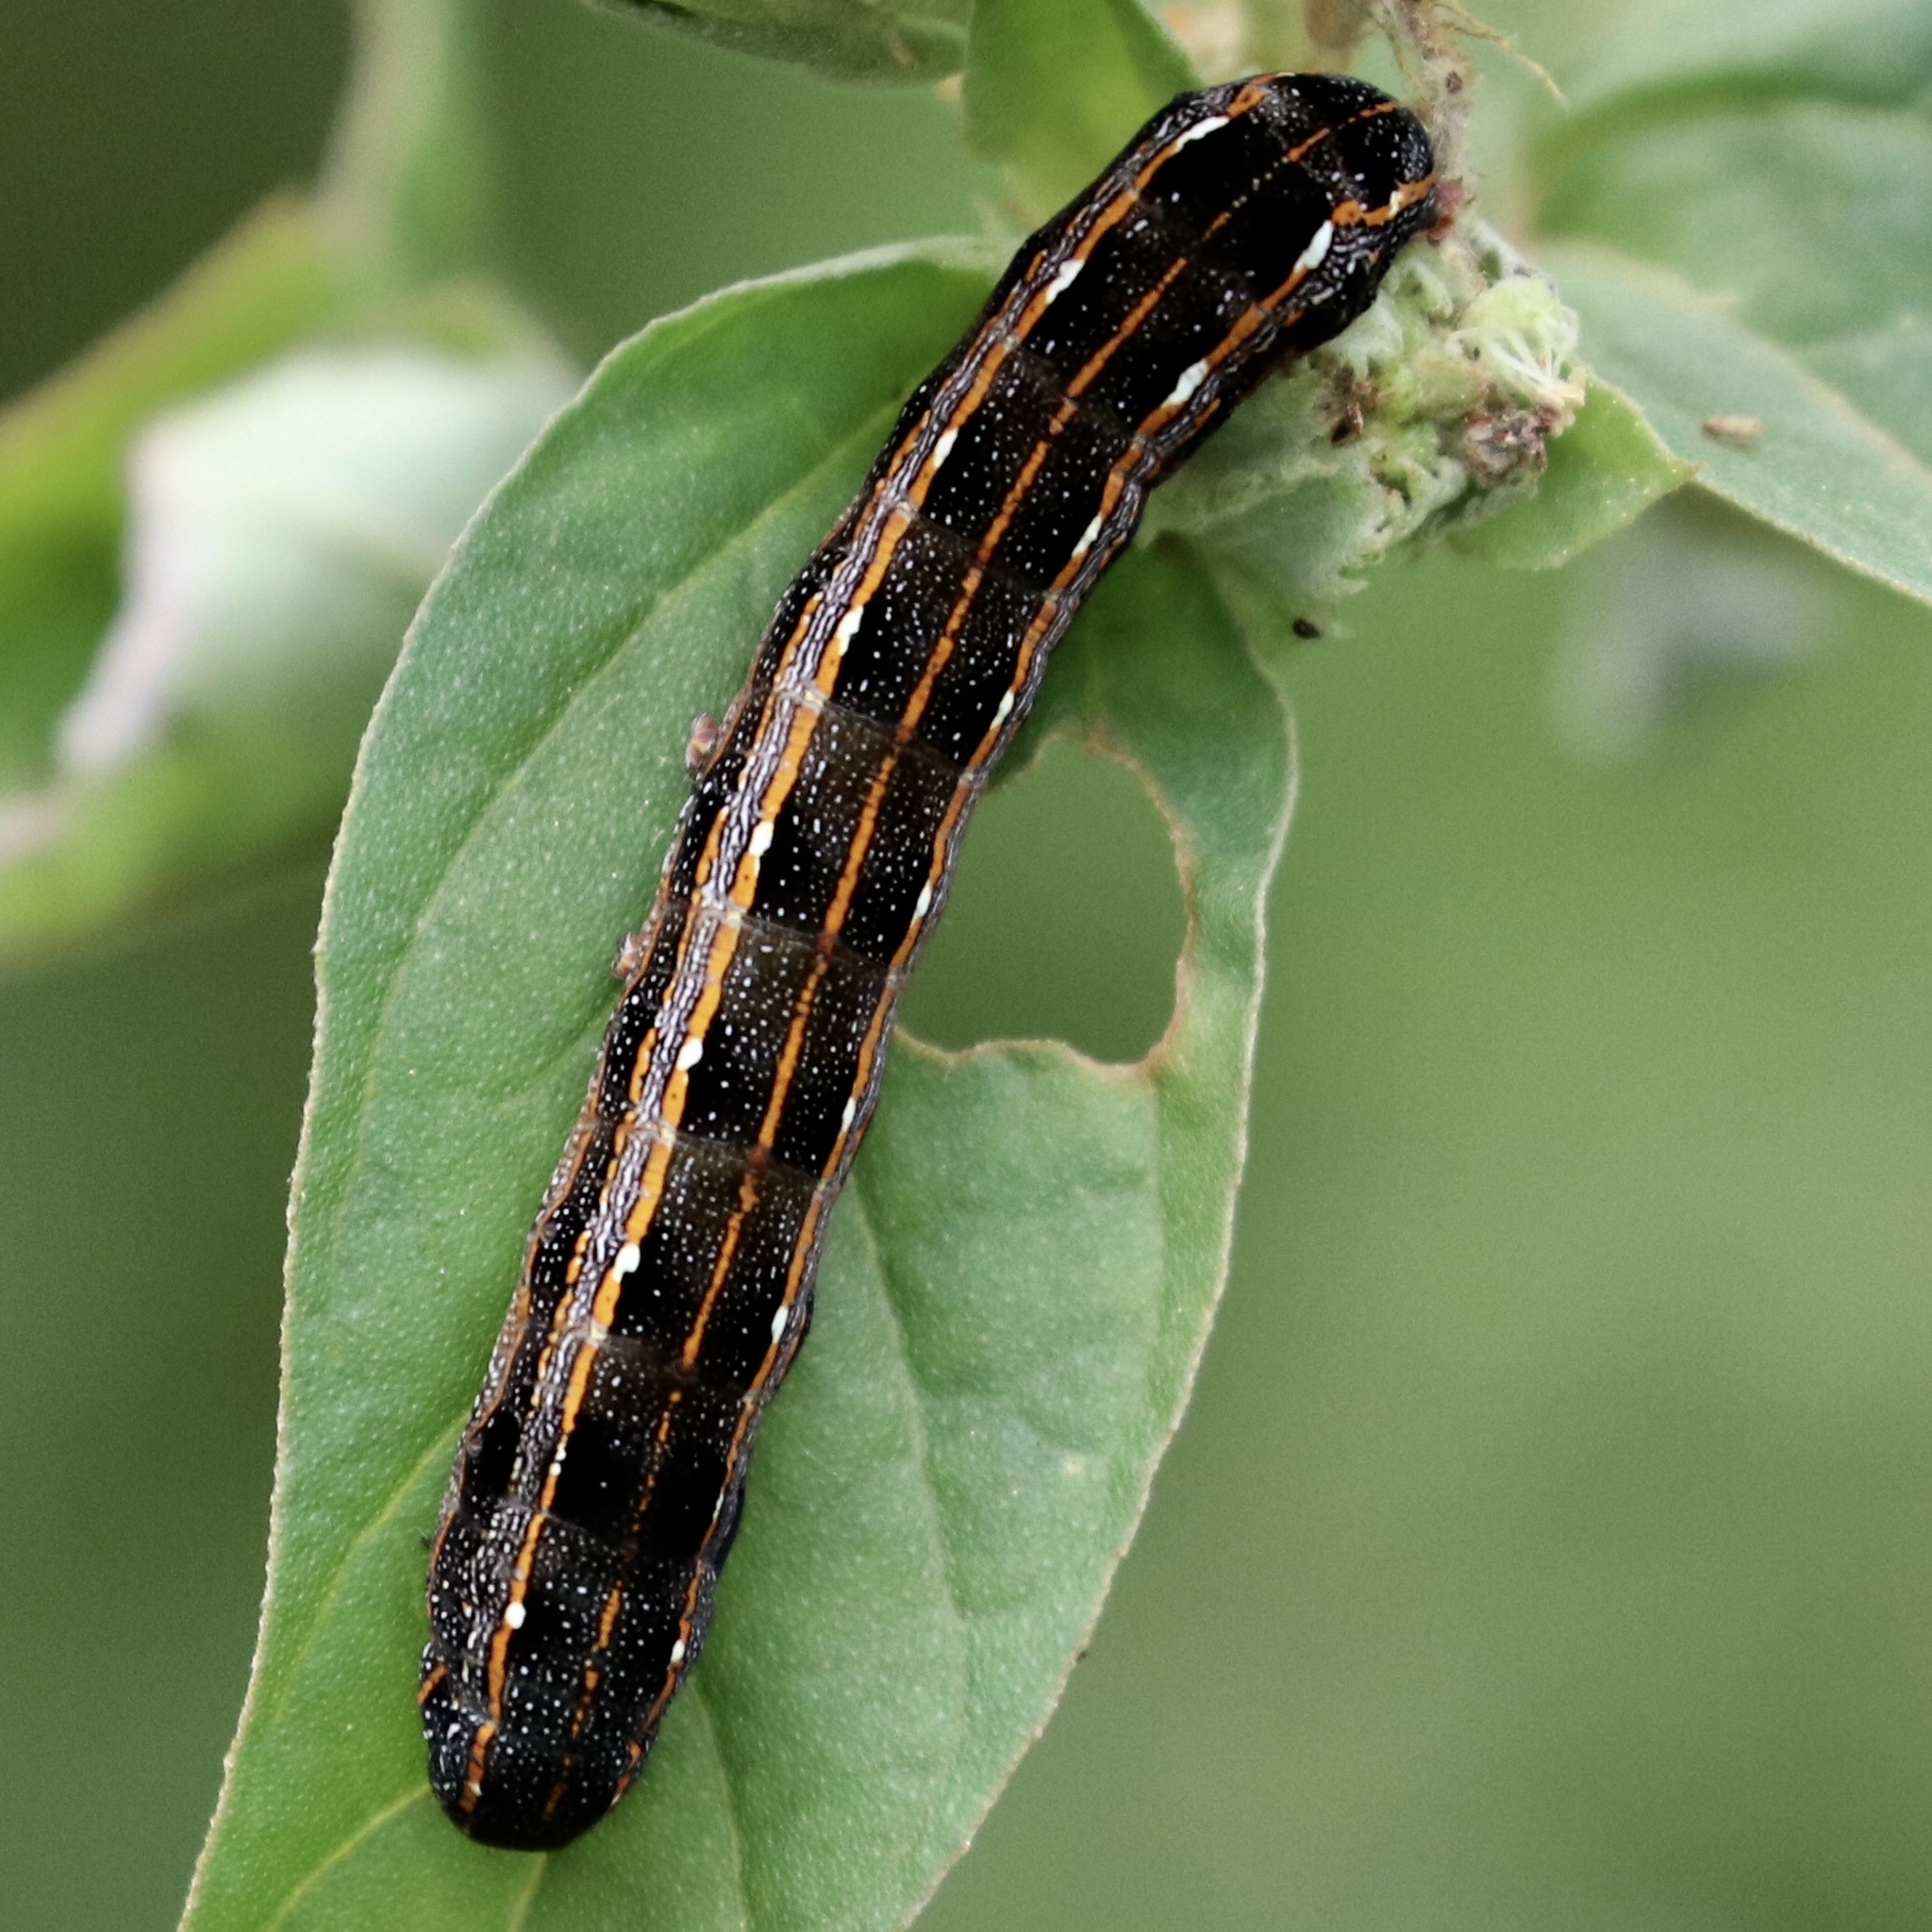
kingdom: Animalia
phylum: Arthropoda
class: Insecta
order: Lepidoptera
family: Noctuidae
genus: Spodoptera
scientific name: Spodoptera ornithogalli
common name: Yellow-striped armyworm
